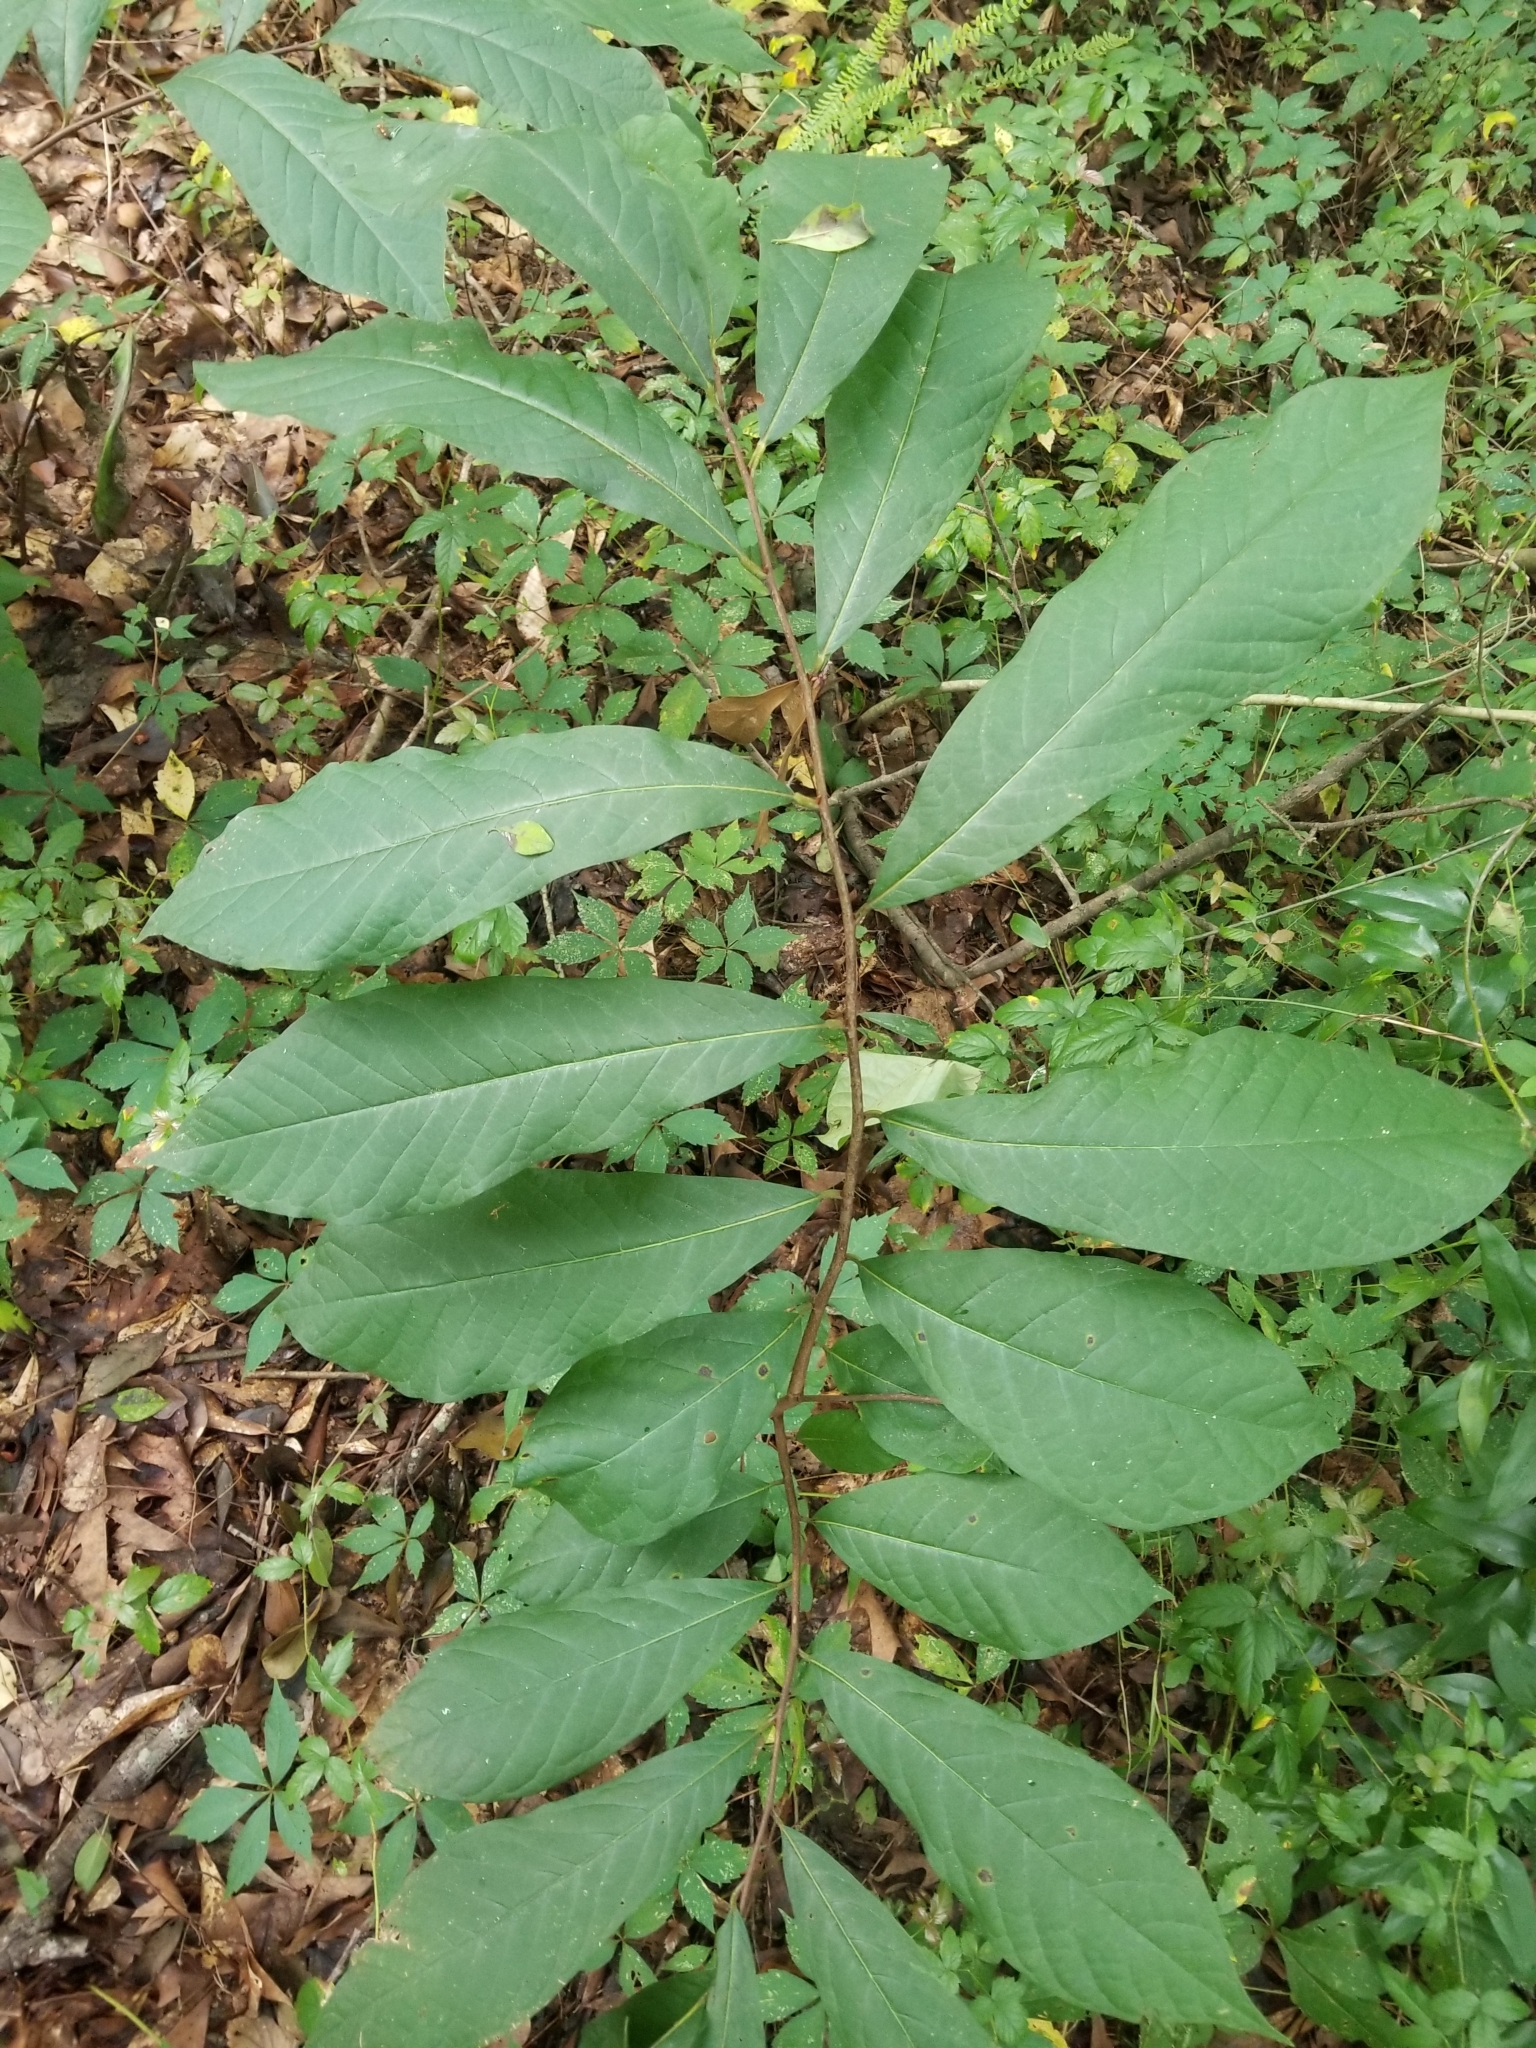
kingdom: Plantae
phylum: Tracheophyta
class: Magnoliopsida
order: Magnoliales
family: Annonaceae
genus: Asimina
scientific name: Asimina parviflora
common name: Dwarf pawpaw
